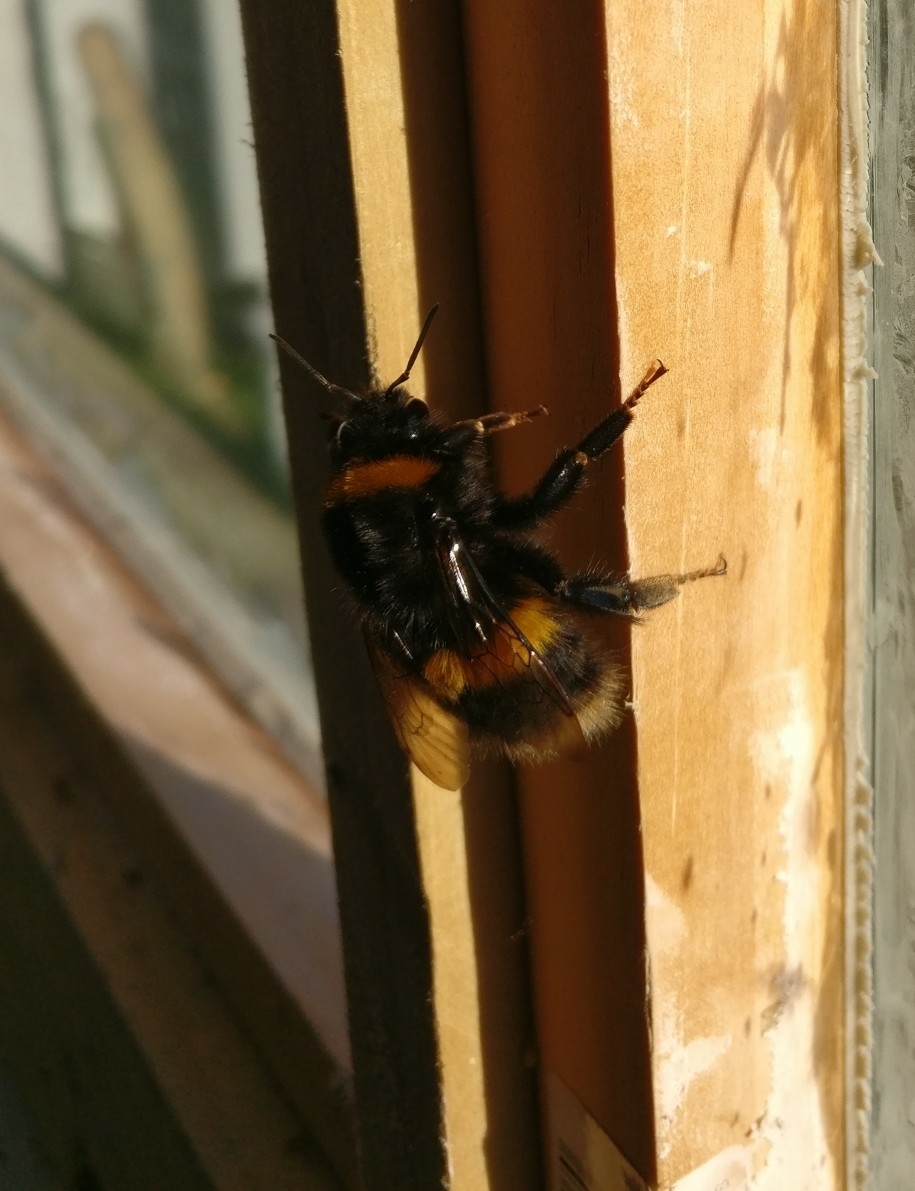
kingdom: Animalia
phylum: Arthropoda
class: Insecta
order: Hymenoptera
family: Apidae
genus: Bombus
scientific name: Bombus terrestris
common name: Buff-tailed bumblebee
